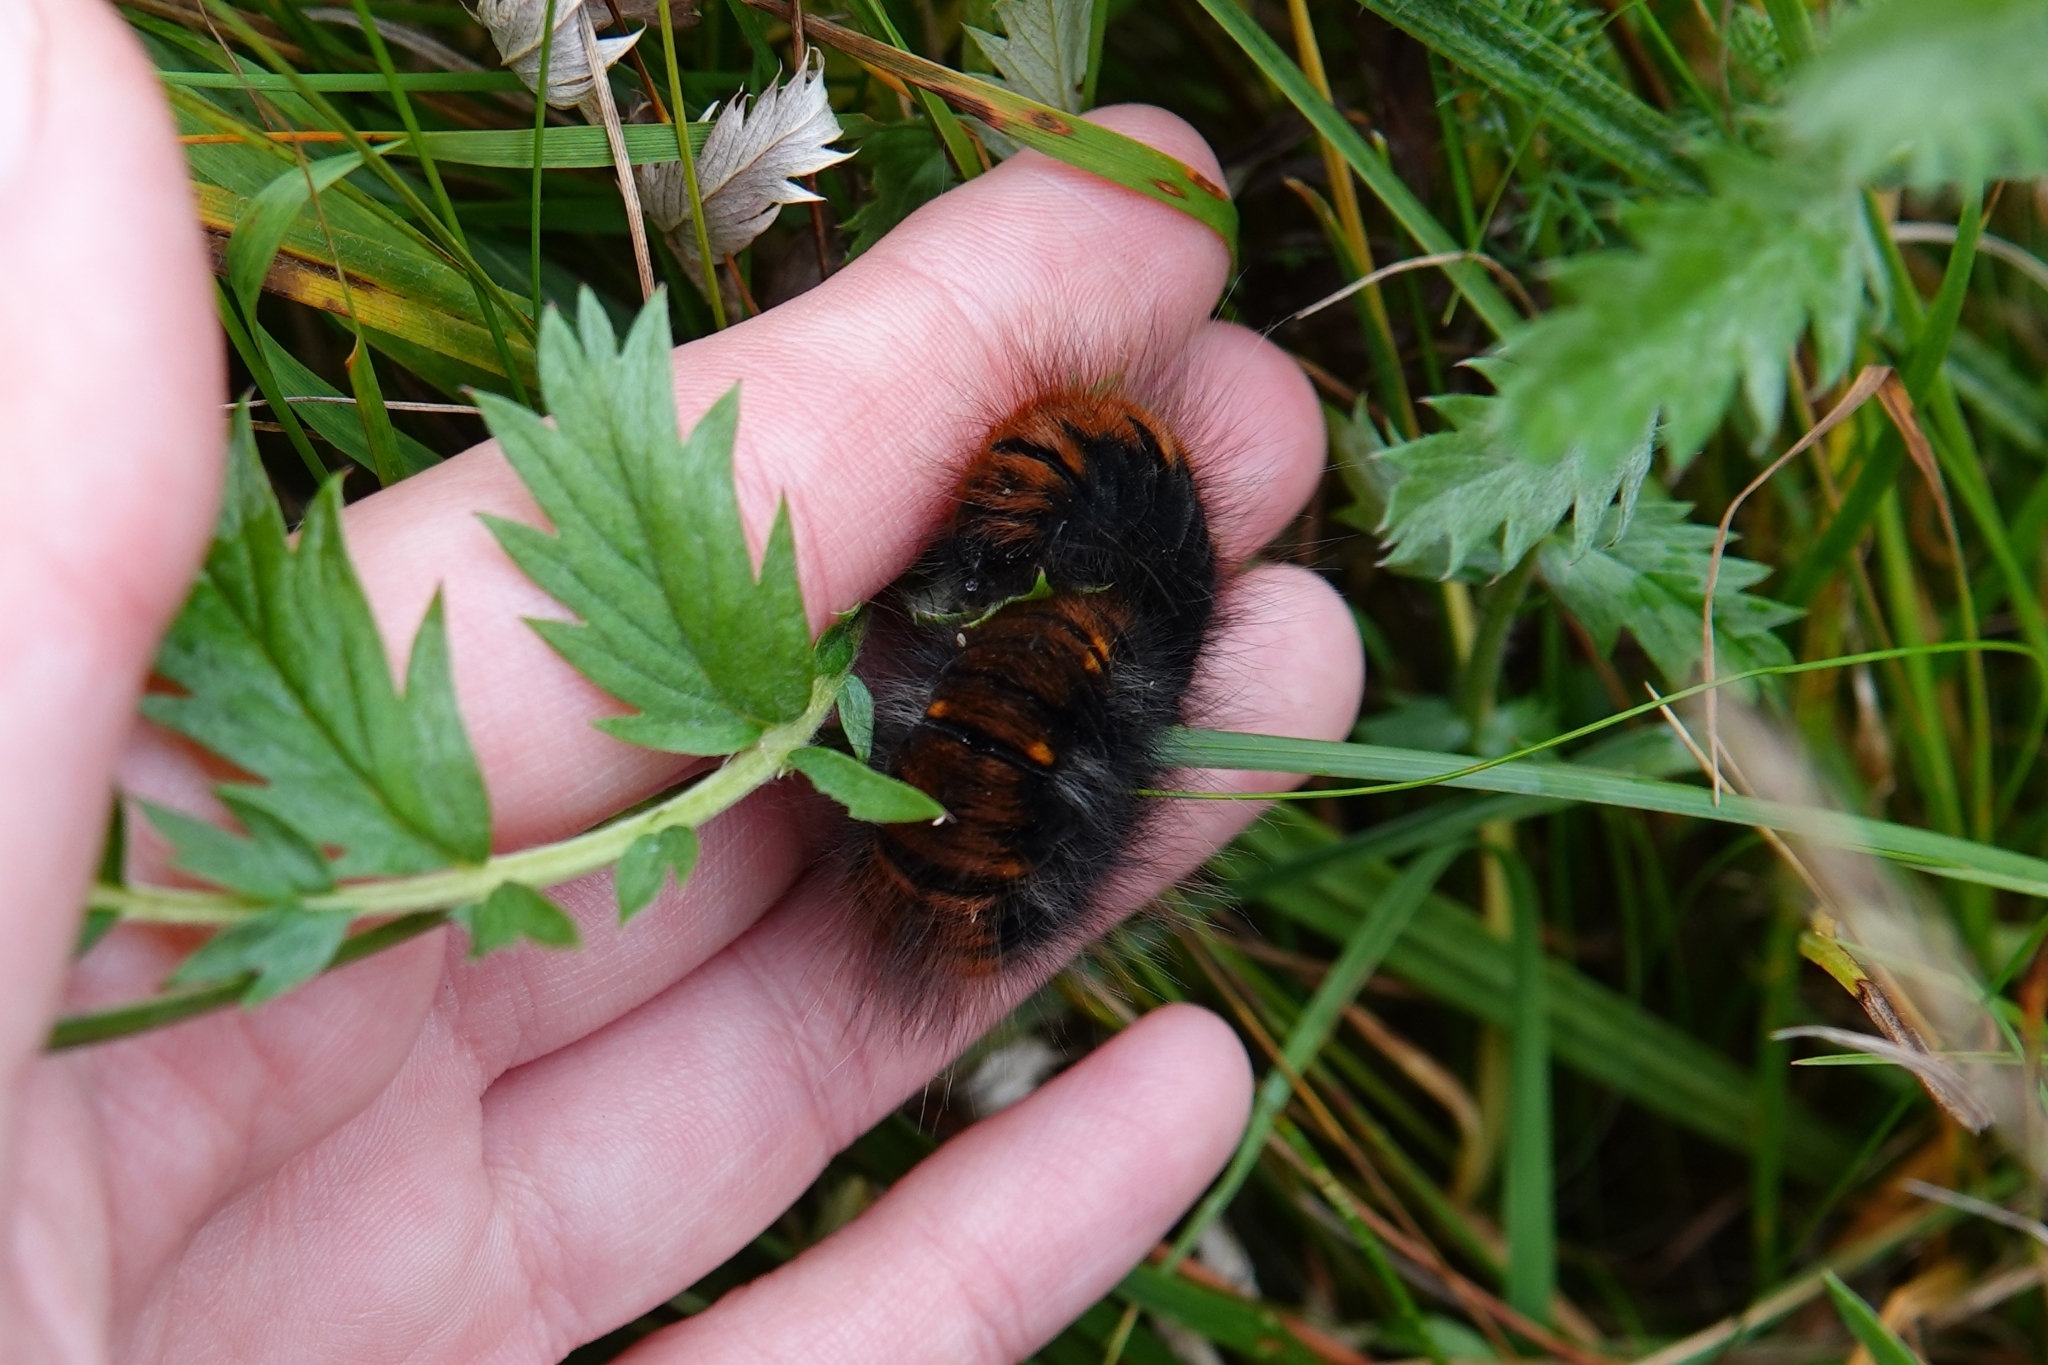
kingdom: Animalia
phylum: Arthropoda
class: Insecta
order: Lepidoptera
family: Lasiocampidae
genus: Macrothylacia
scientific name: Macrothylacia rubi
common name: Fox moth
